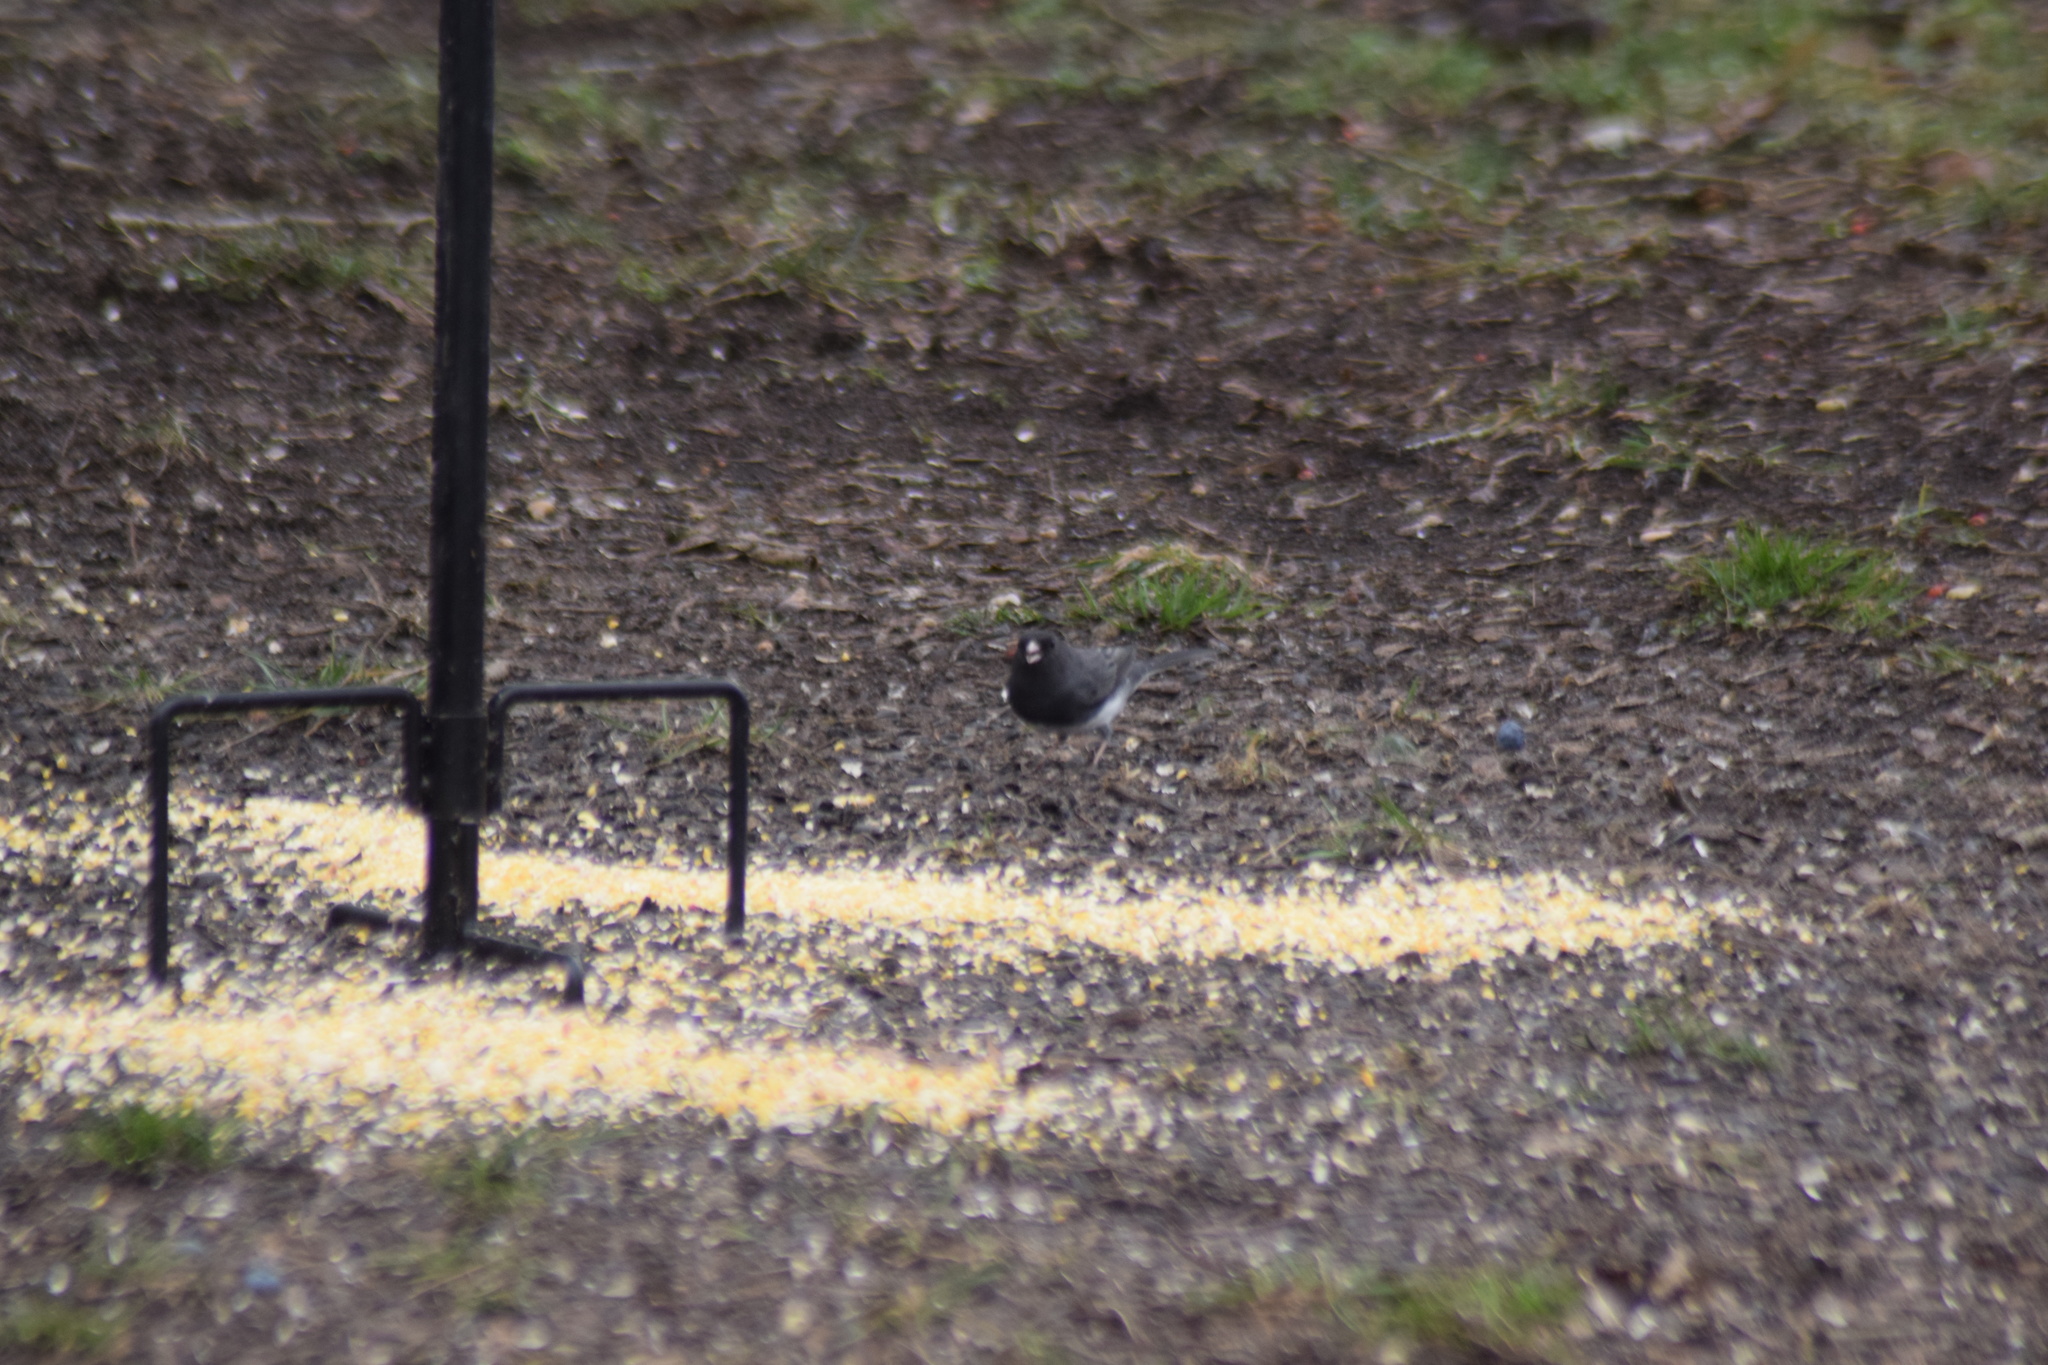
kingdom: Animalia
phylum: Chordata
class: Aves
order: Passeriformes
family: Passerellidae
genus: Junco
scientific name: Junco hyemalis
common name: Dark-eyed junco
